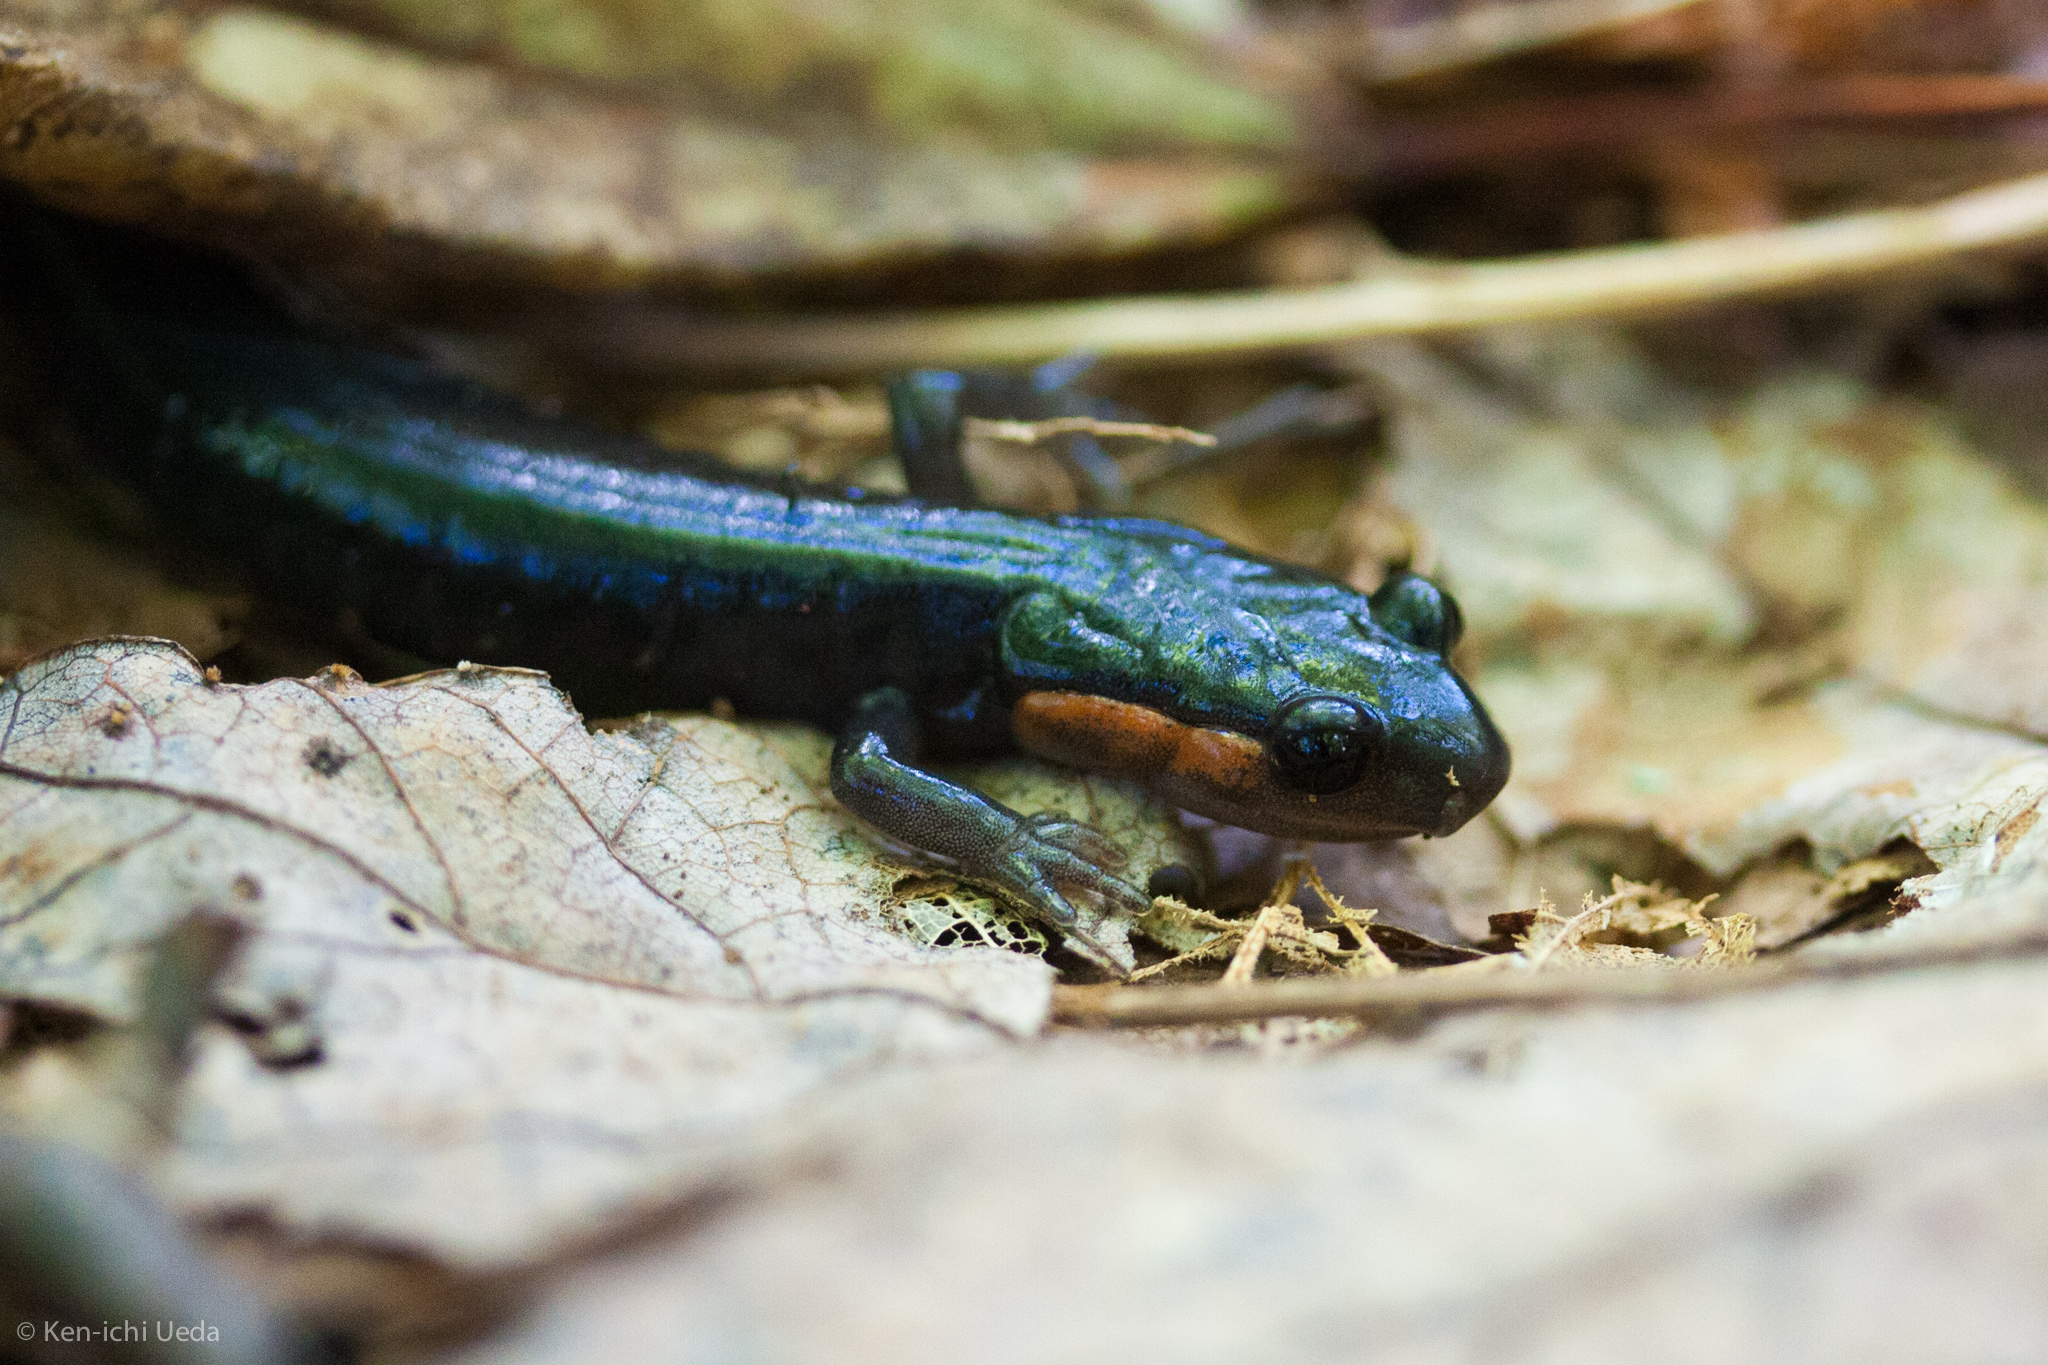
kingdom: Animalia
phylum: Chordata
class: Amphibia
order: Caudata
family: Plethodontidae
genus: Plethodon
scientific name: Plethodon jordani
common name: Red-cheeked salamander
